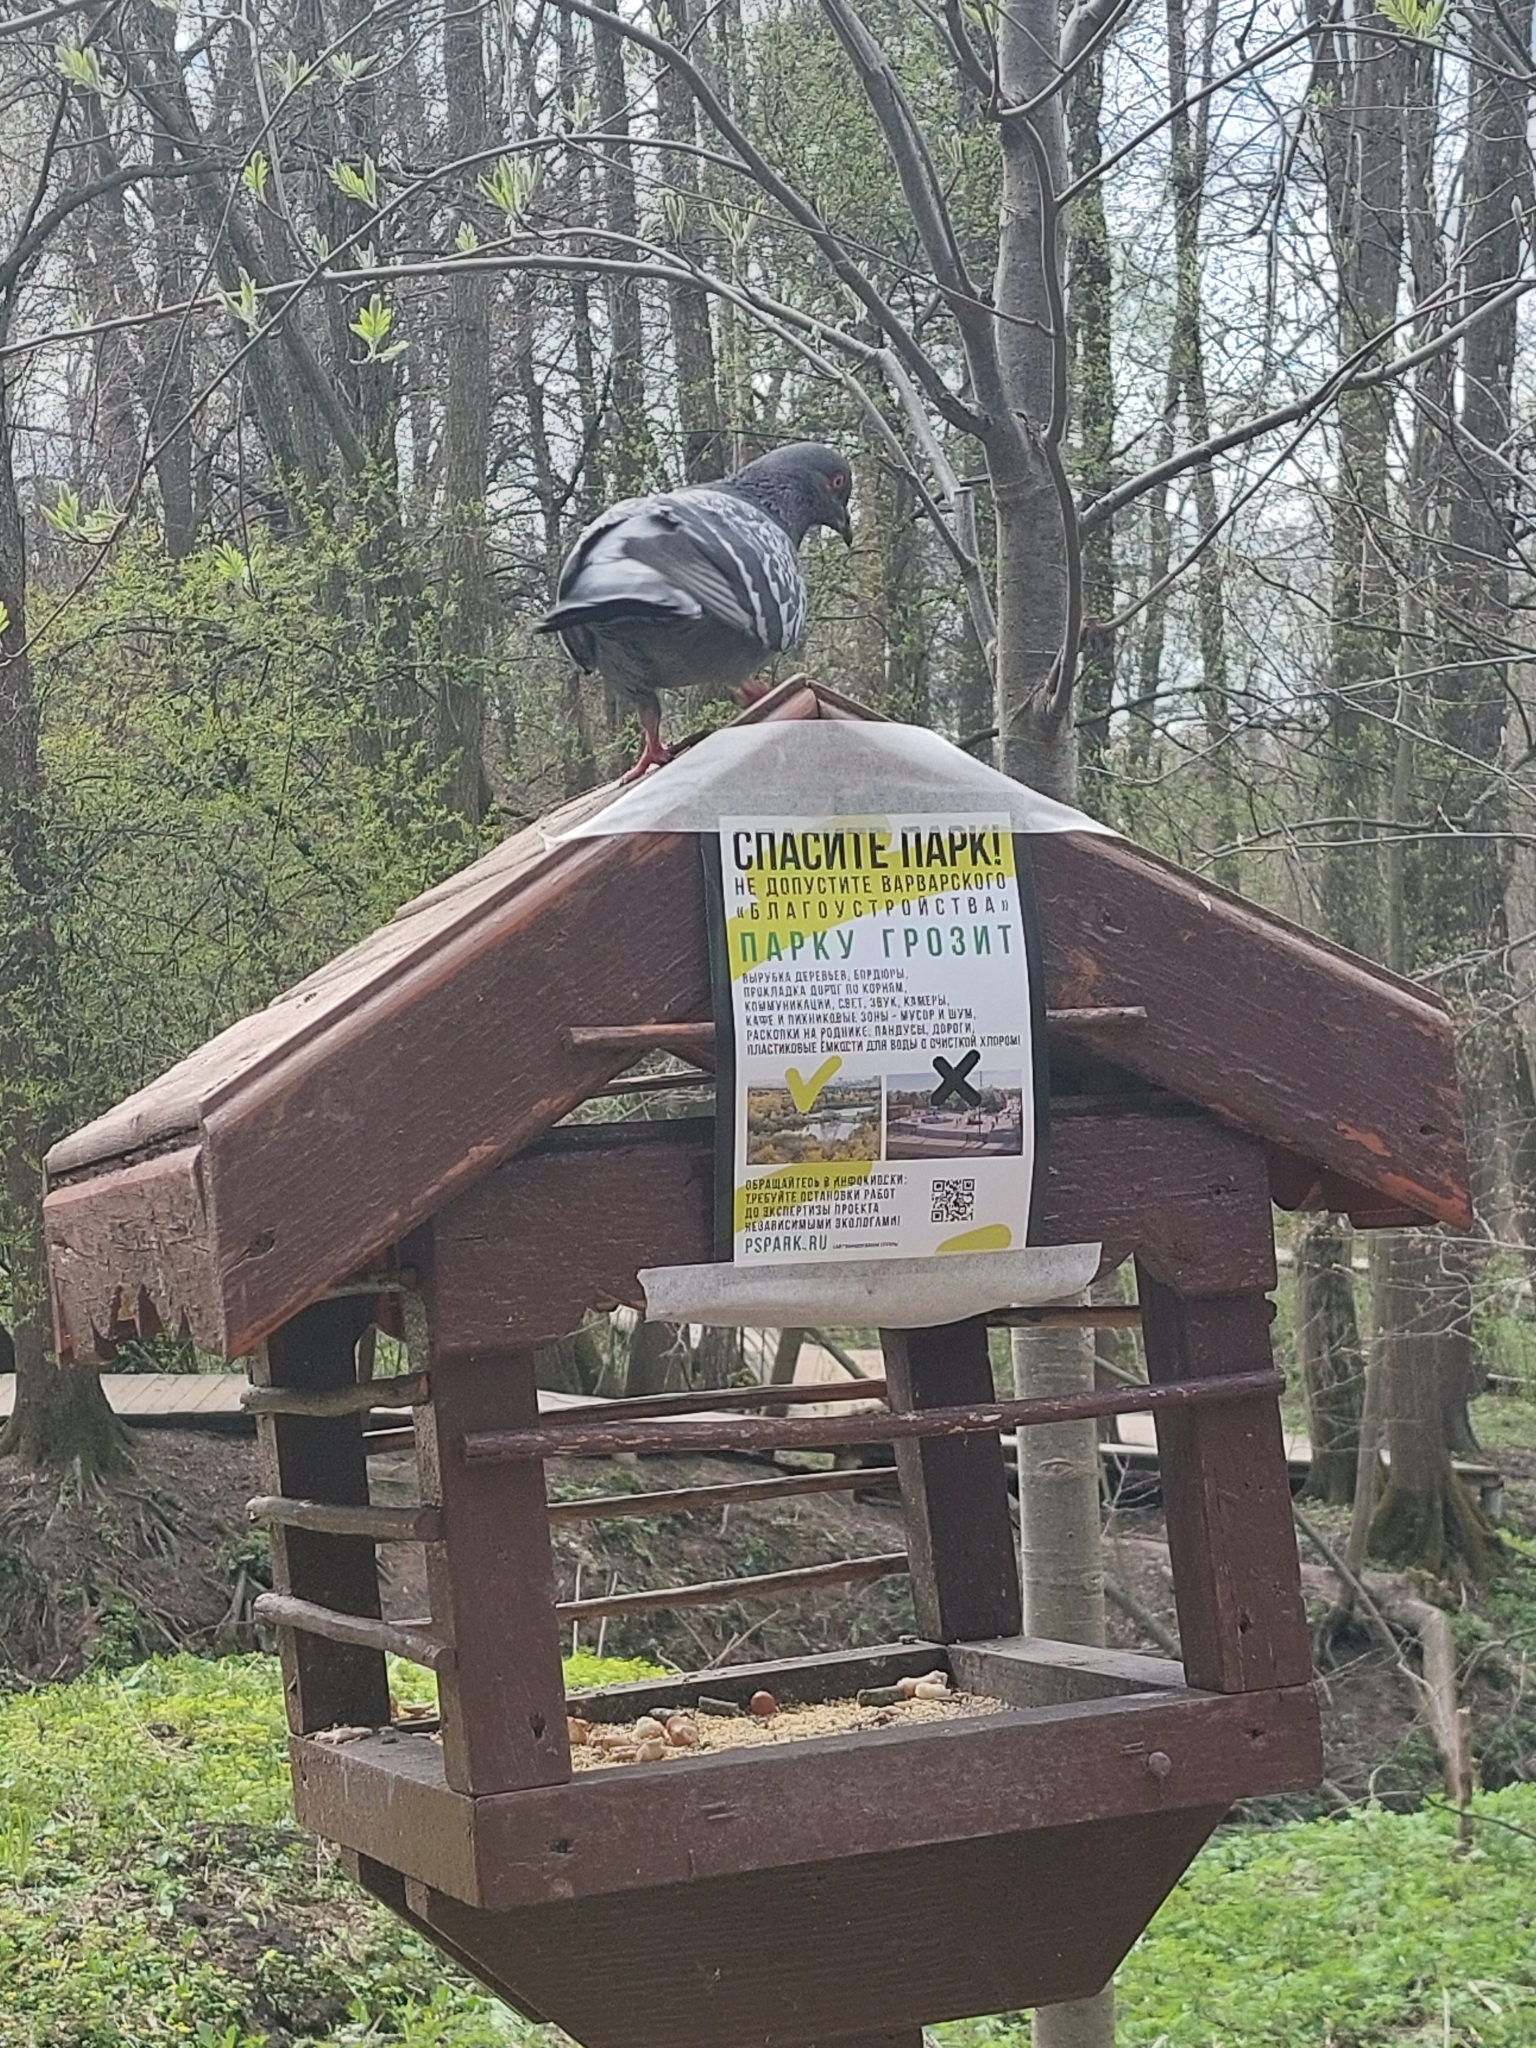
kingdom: Animalia
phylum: Chordata
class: Aves
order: Columbiformes
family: Columbidae
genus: Columba
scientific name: Columba livia
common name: Rock pigeon
